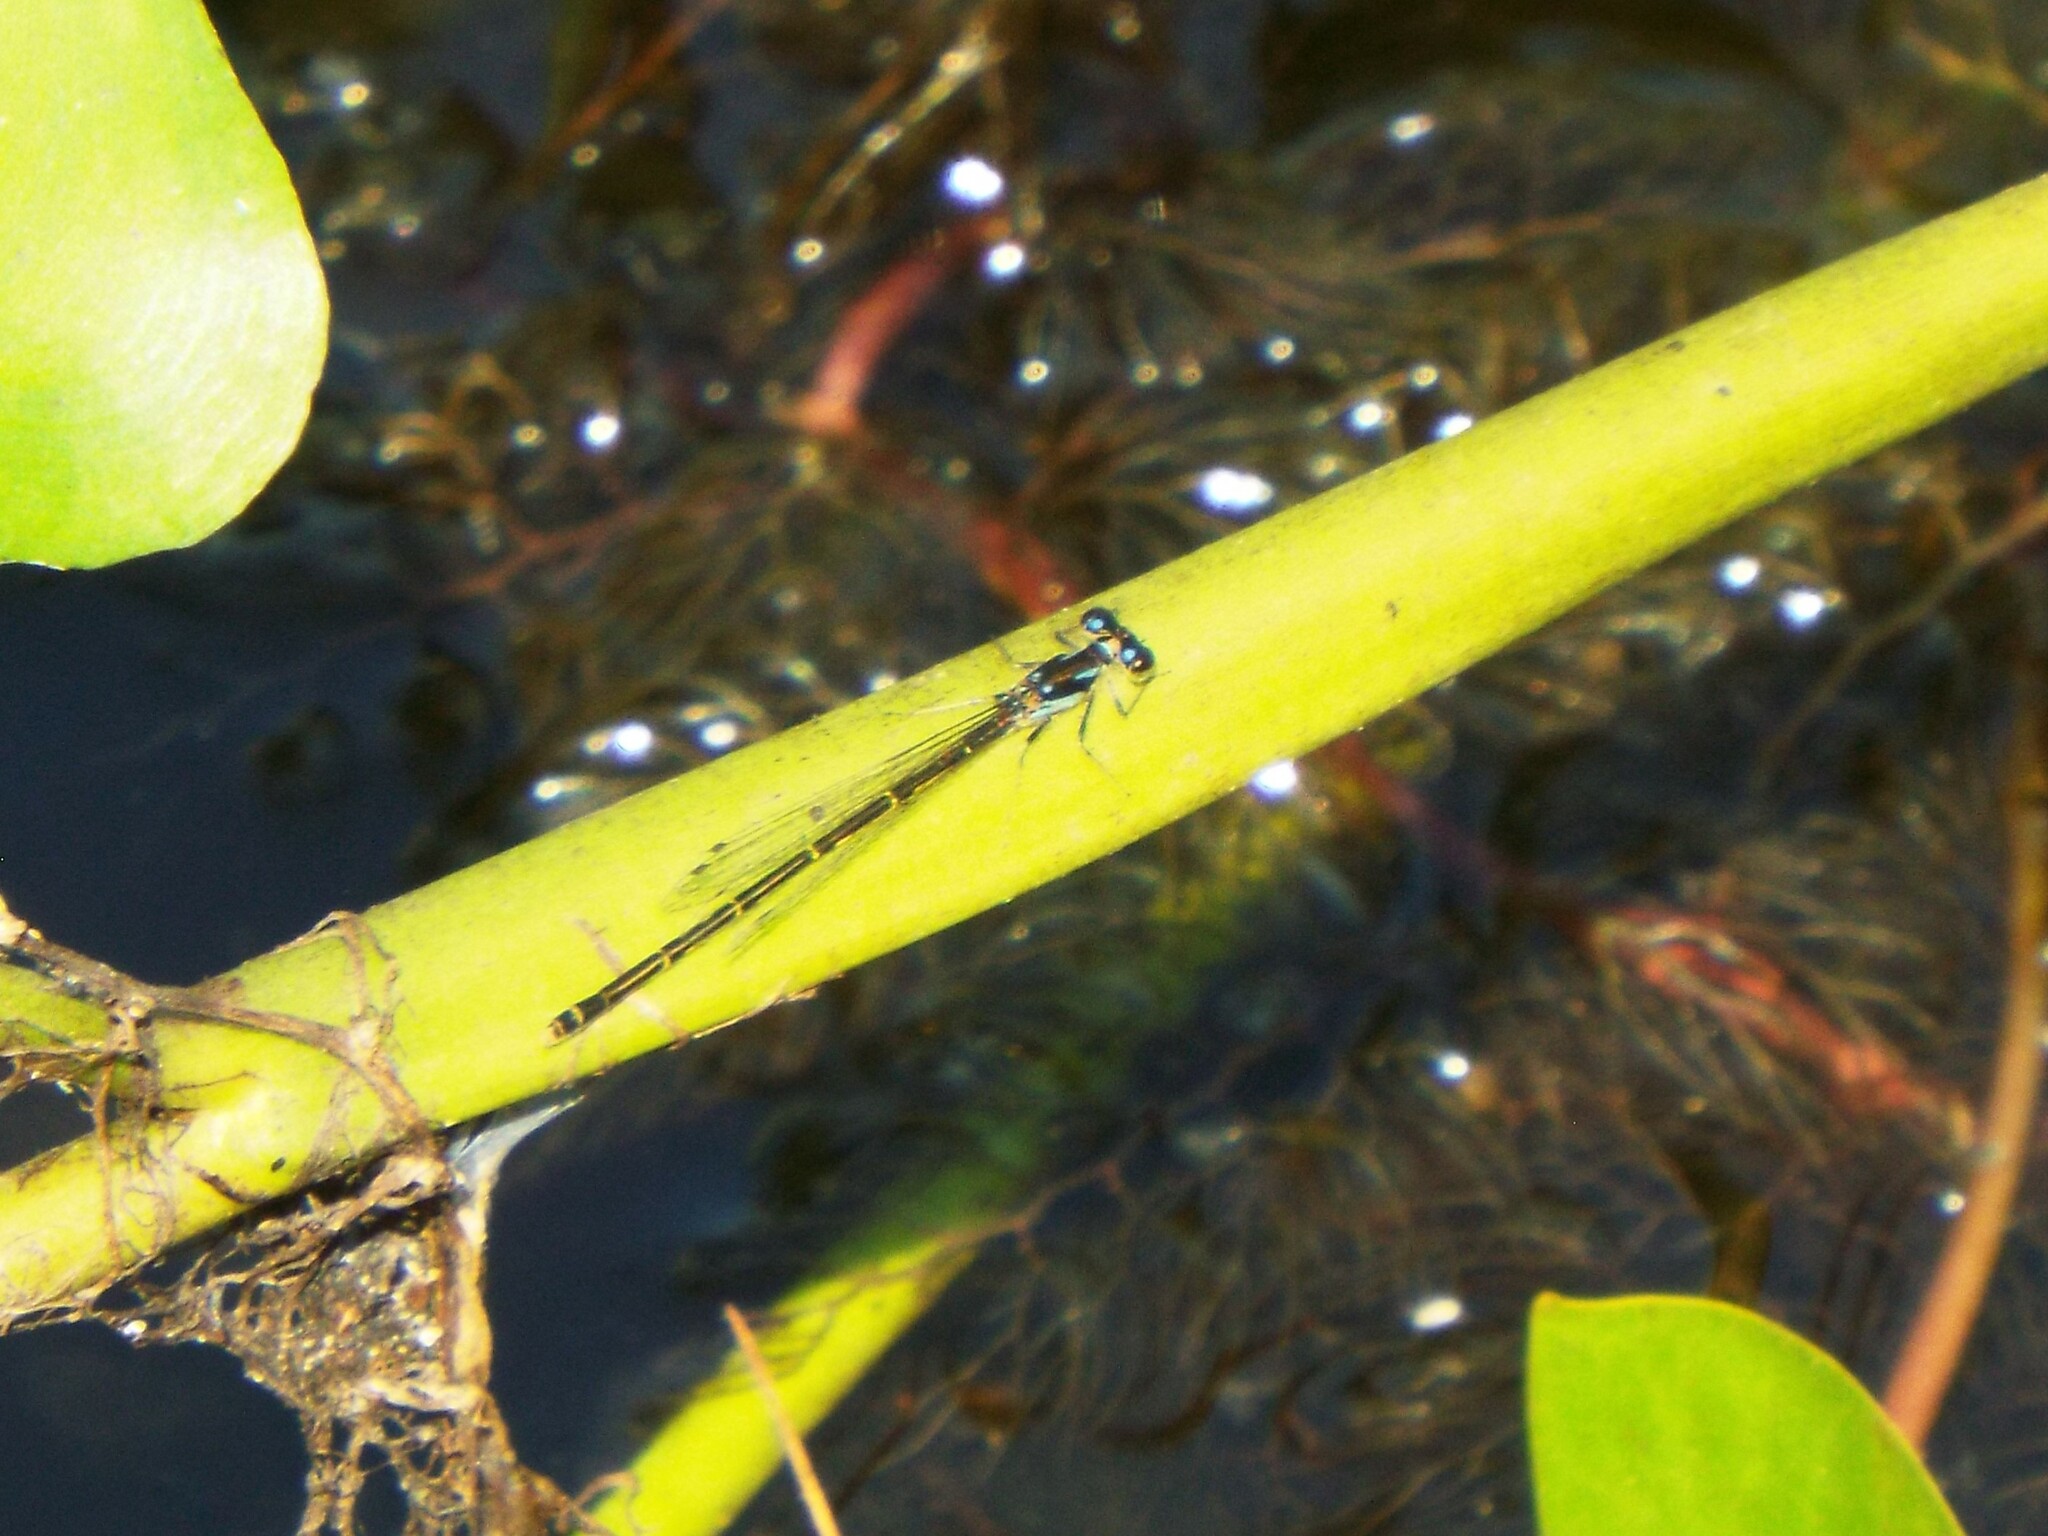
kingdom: Animalia
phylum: Arthropoda
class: Insecta
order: Odonata
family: Coenagrionidae
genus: Ischnura
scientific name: Ischnura posita
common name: Fragile forktail
